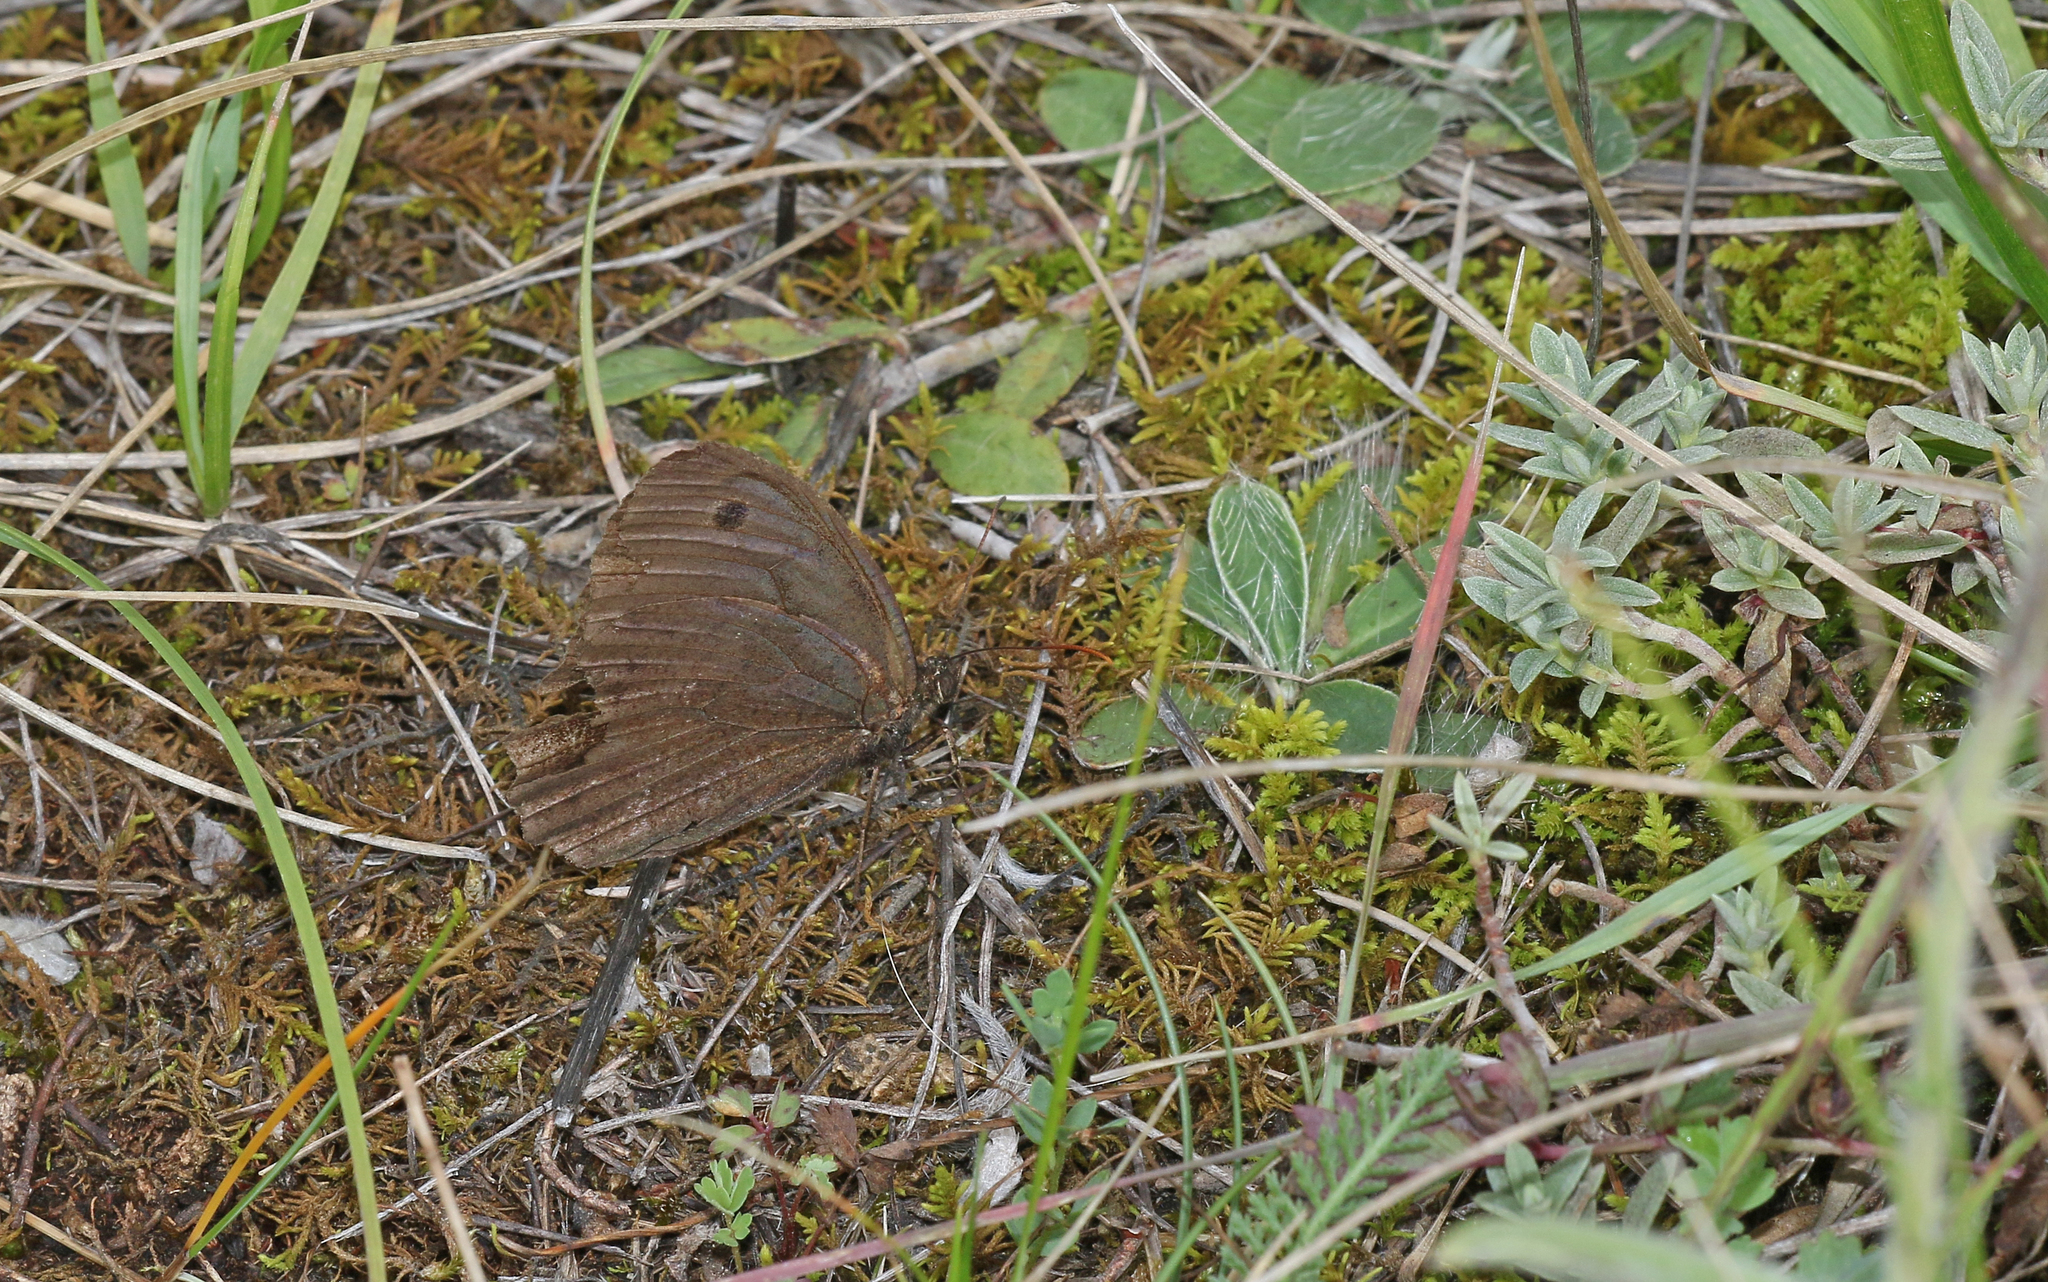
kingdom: Animalia
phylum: Arthropoda
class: Insecta
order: Lepidoptera
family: Nymphalidae
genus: Minois
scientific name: Minois dryas
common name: Dryad
